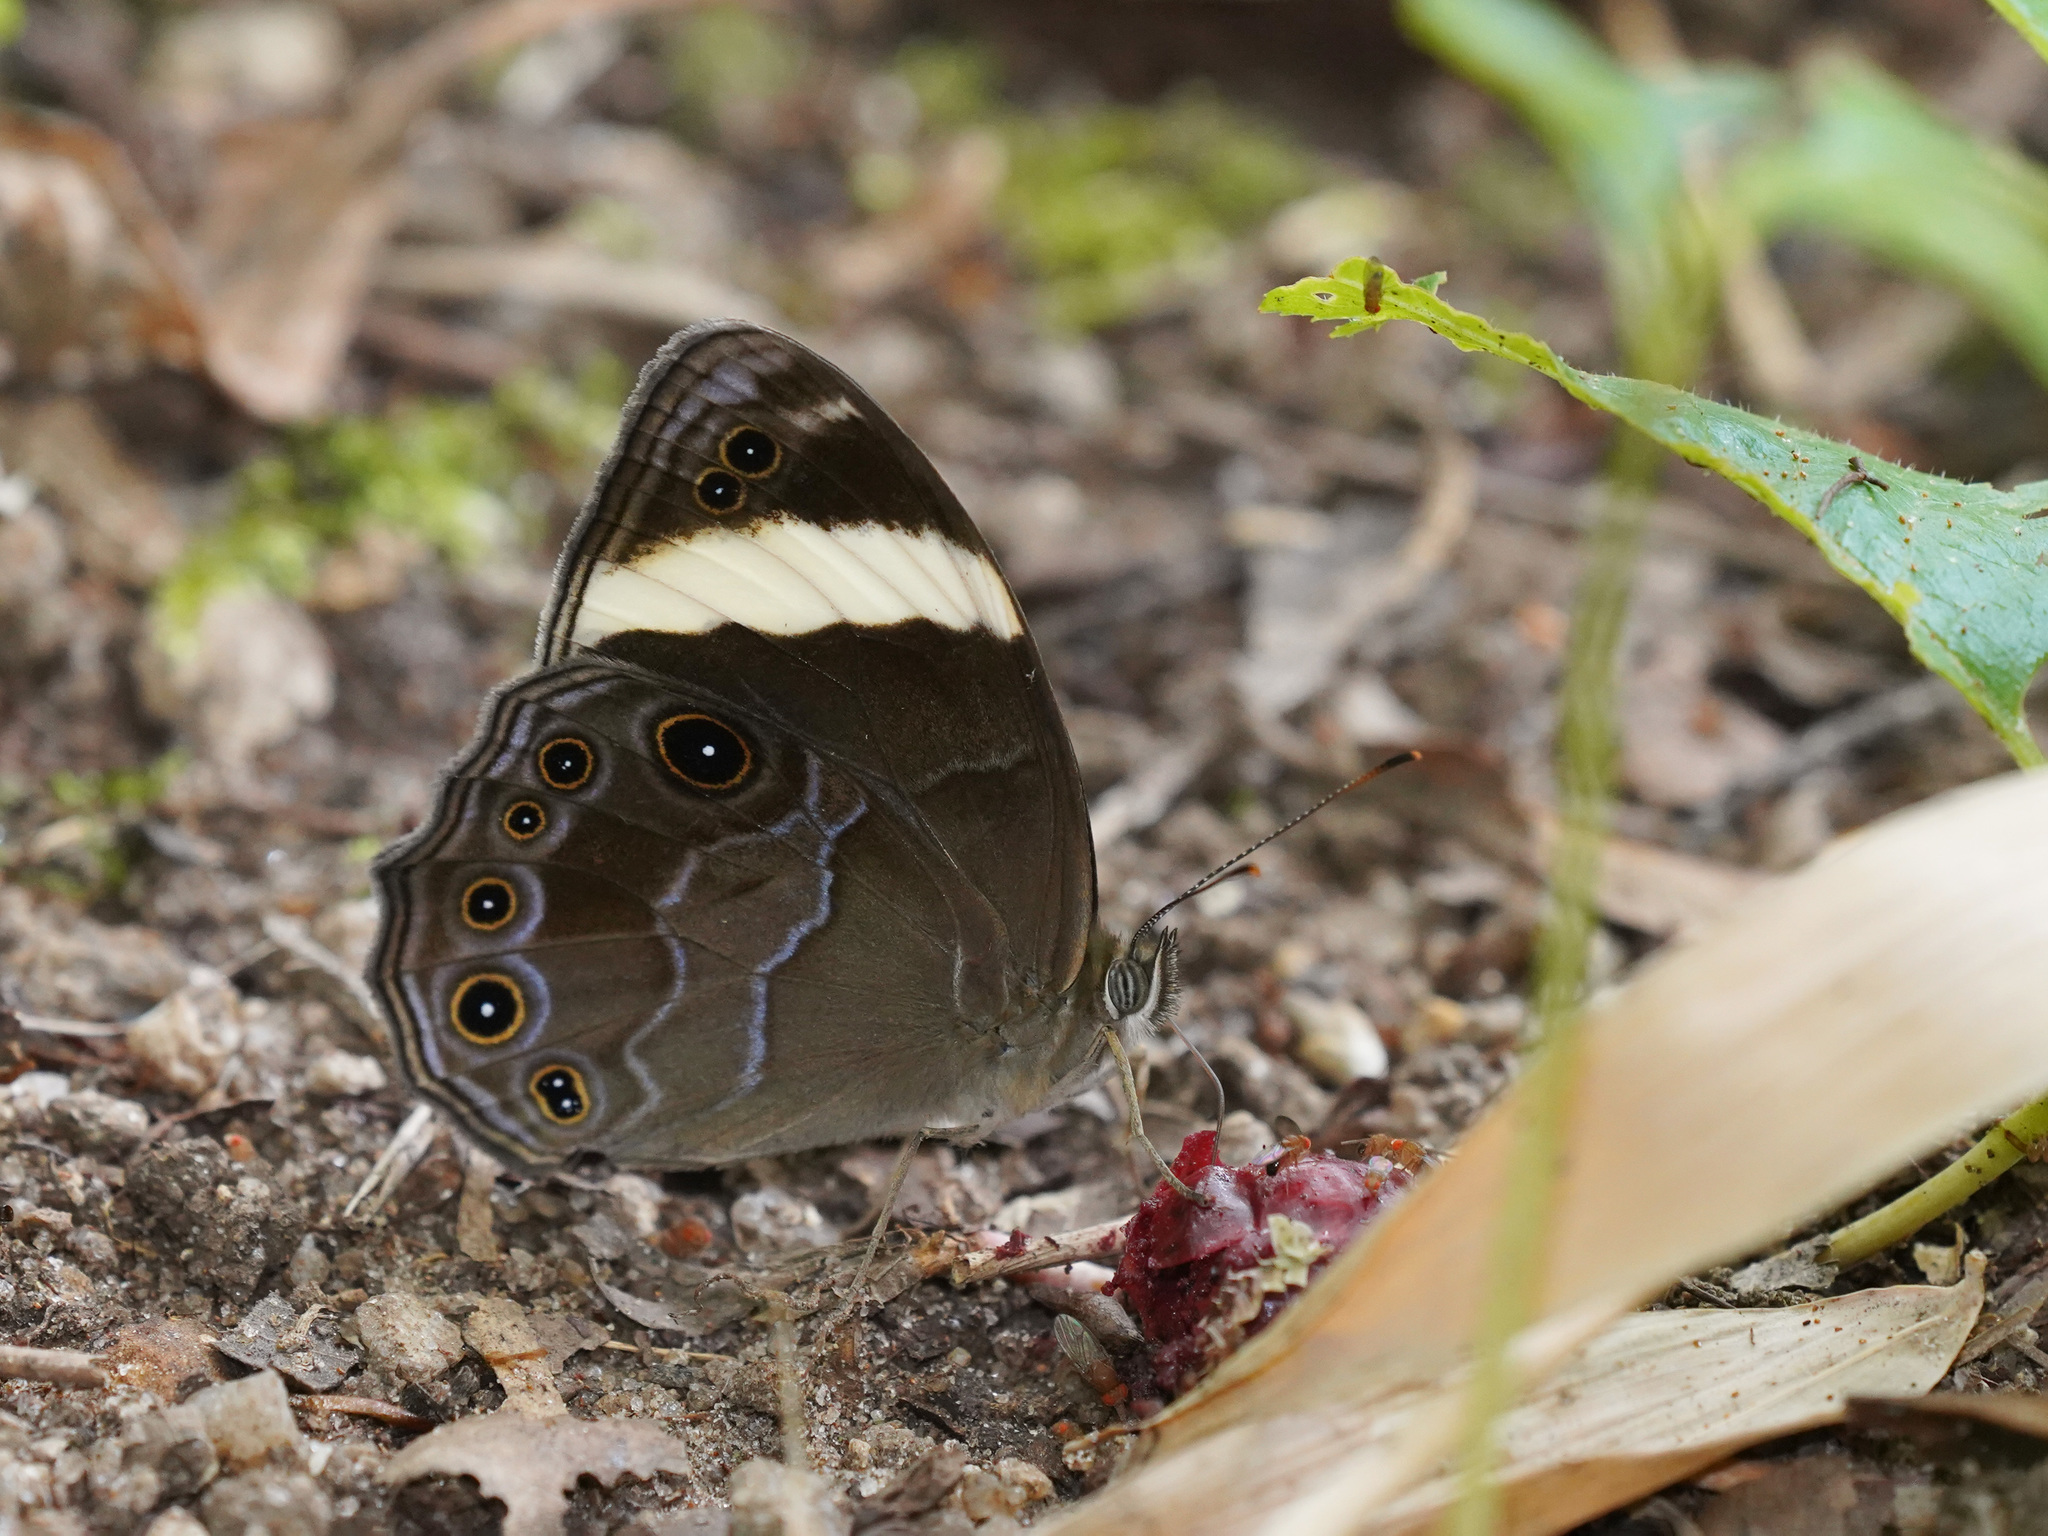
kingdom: Animalia
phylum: Arthropoda
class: Insecta
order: Lepidoptera
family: Nymphalidae
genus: Lethe
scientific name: Lethe verma
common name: Straight-banded treebrown
